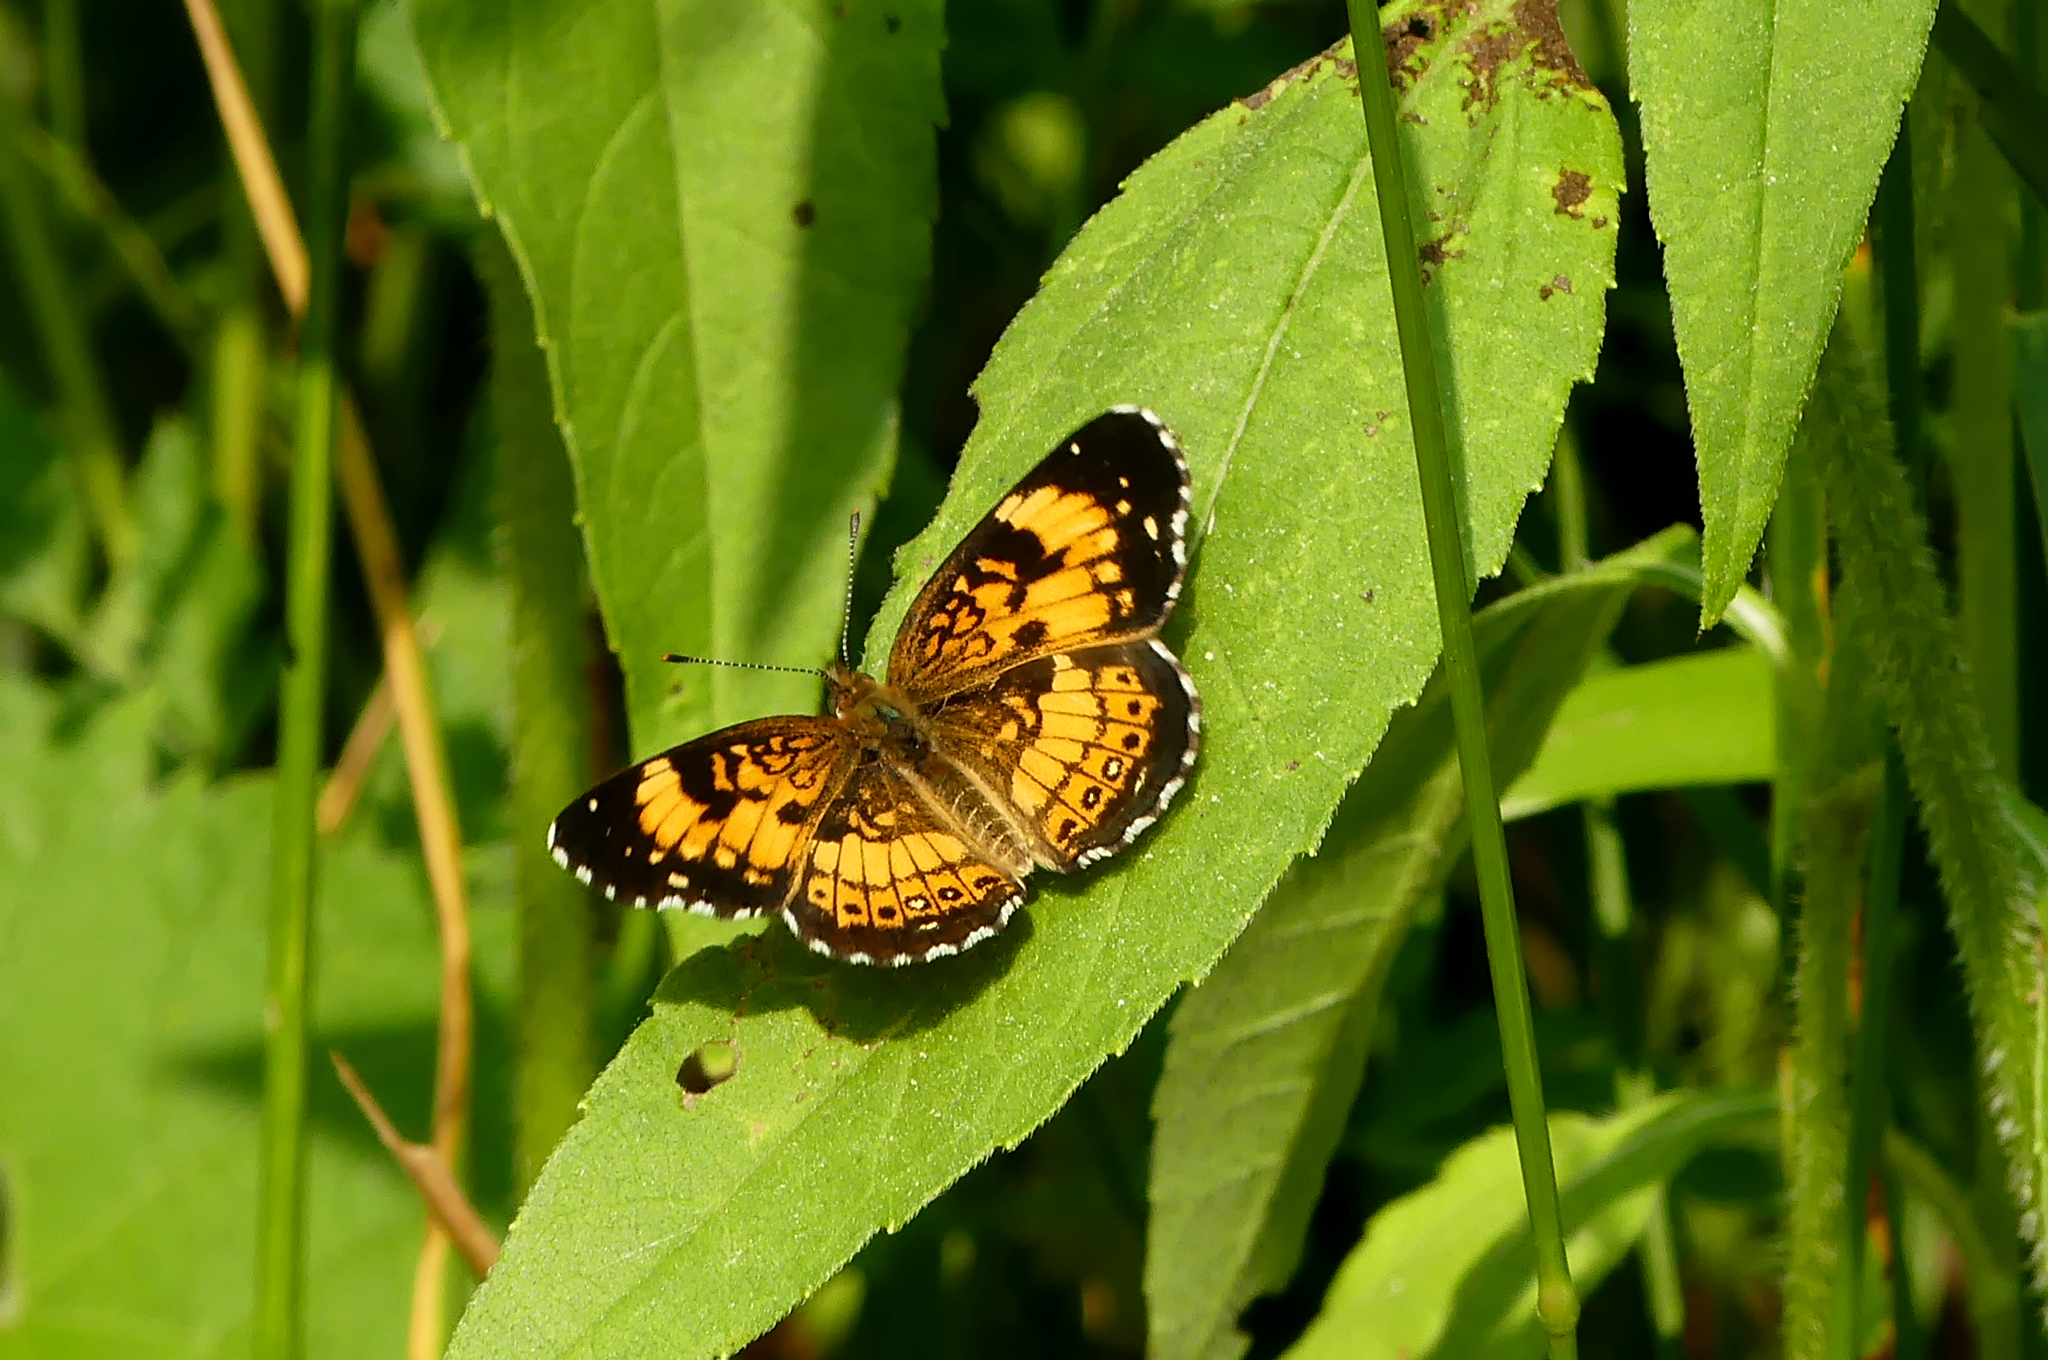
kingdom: Animalia
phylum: Arthropoda
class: Insecta
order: Lepidoptera
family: Nymphalidae
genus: Chlosyne
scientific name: Chlosyne nycteis
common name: Silvery checkerspot
